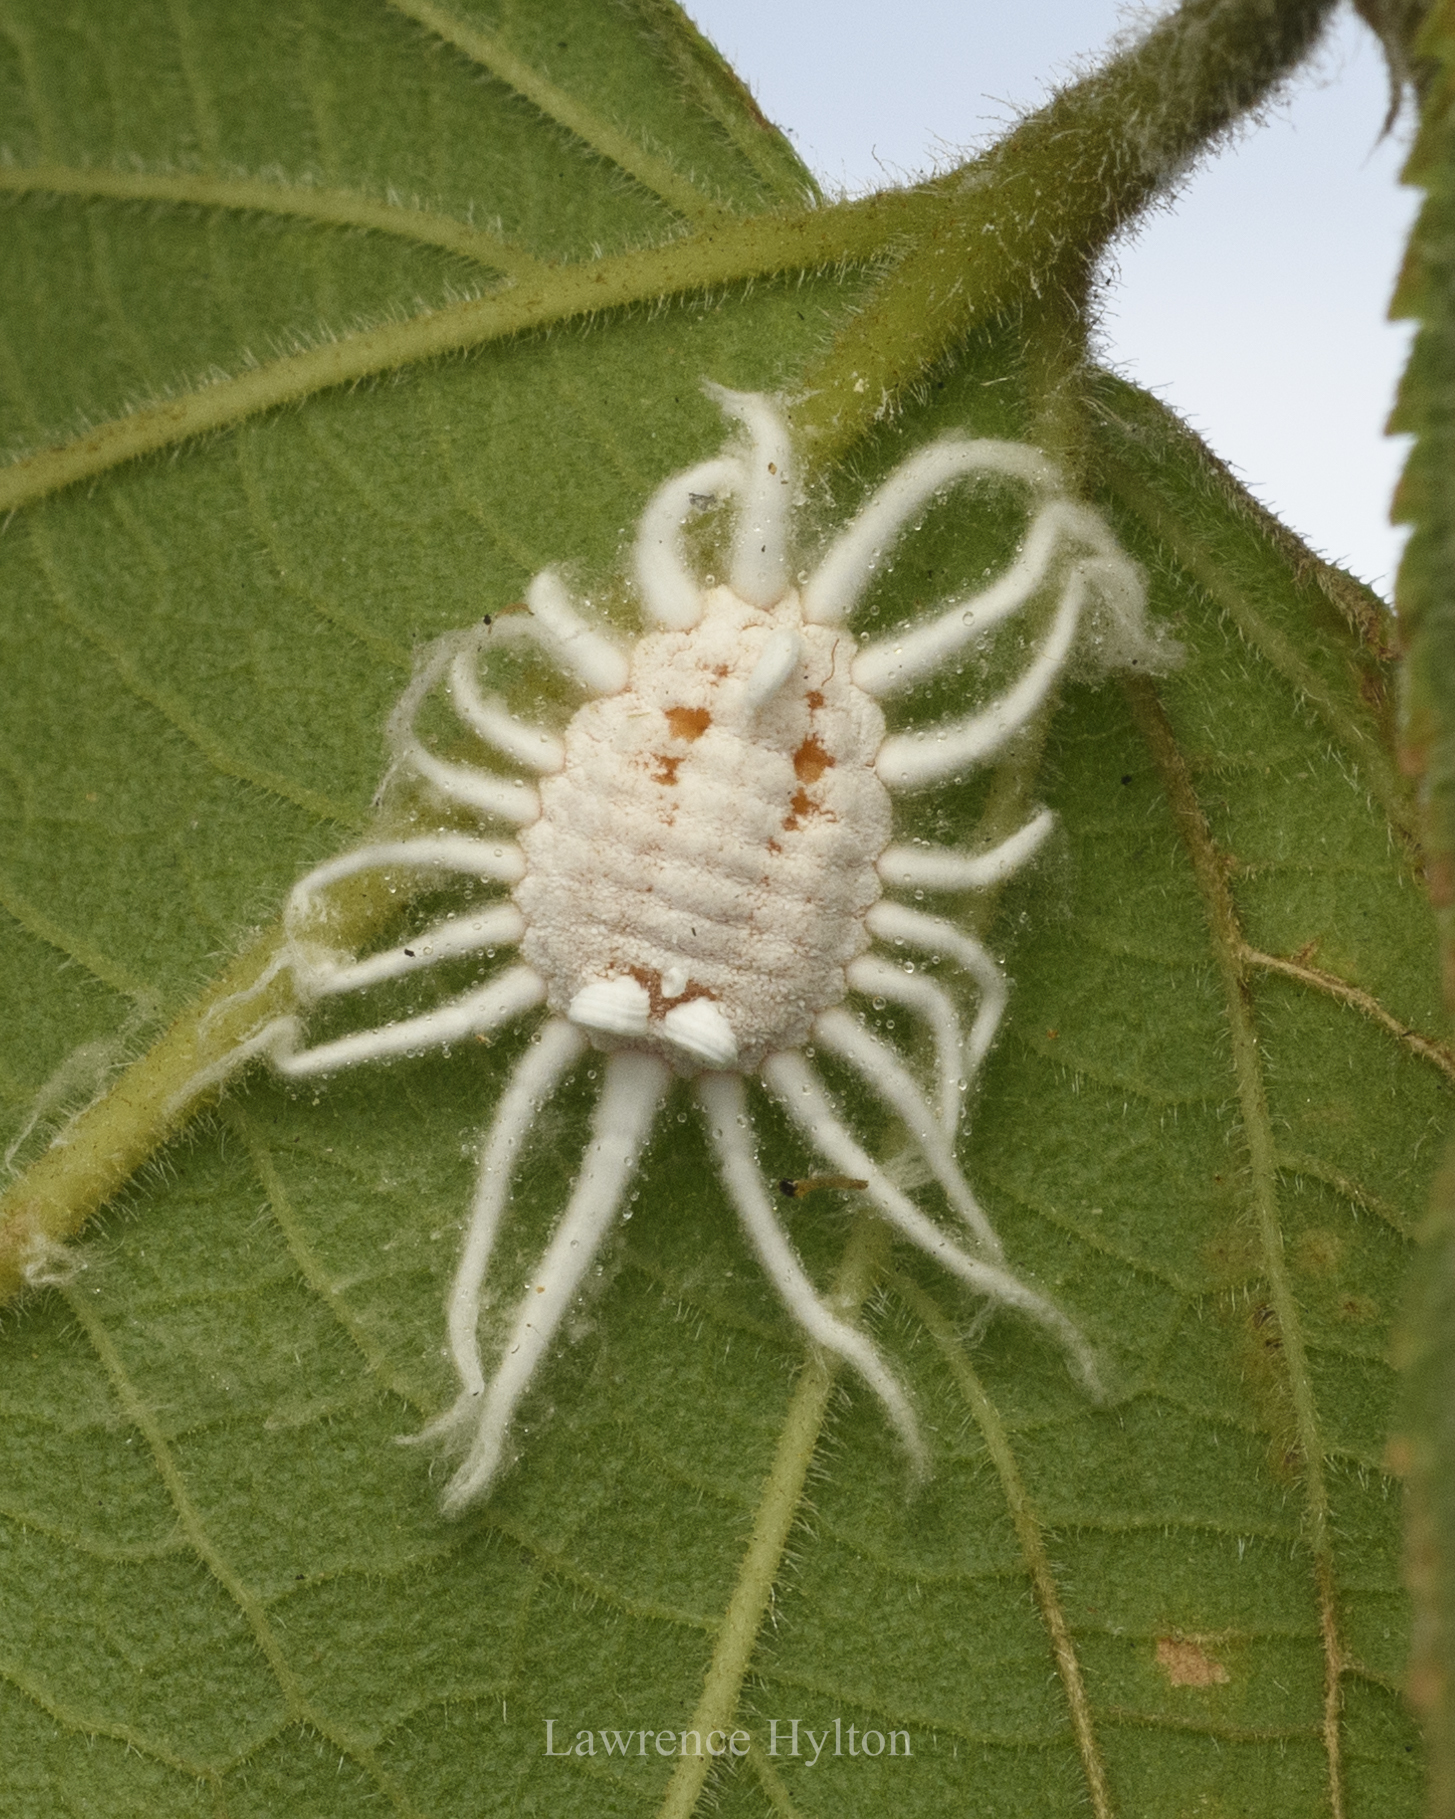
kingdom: Animalia
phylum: Arthropoda
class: Insecta
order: Hemiptera
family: Margarodidae
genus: Icerya
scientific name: Icerya aegyptiaca
